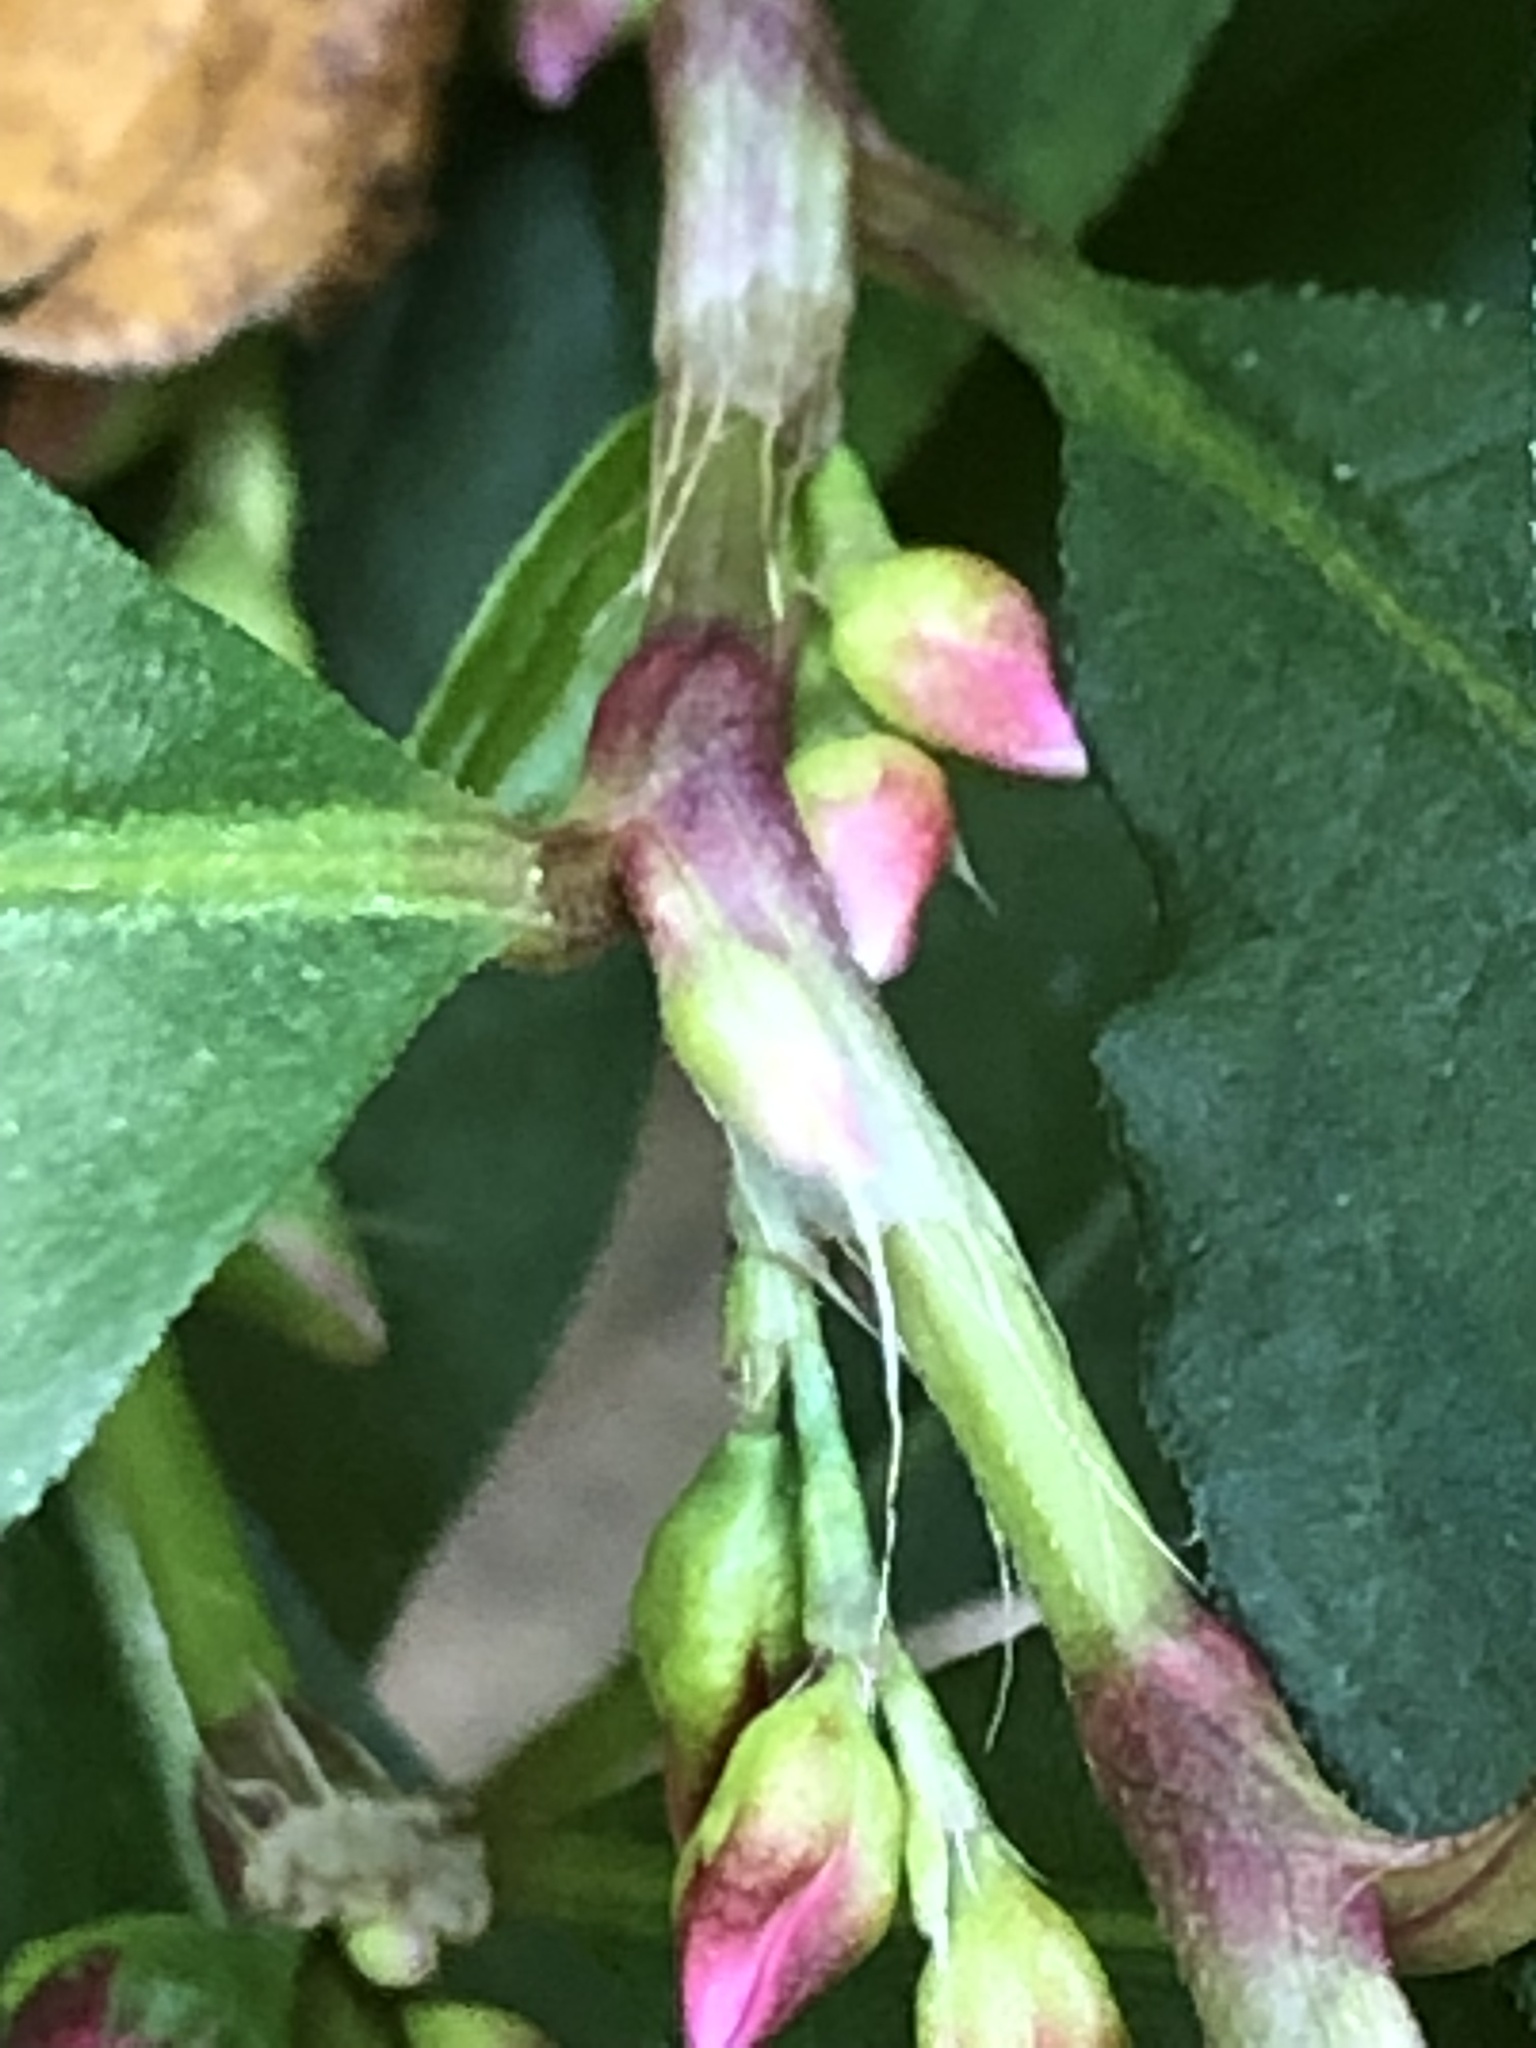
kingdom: Plantae
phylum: Tracheophyta
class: Magnoliopsida
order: Caryophyllales
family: Polygonaceae
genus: Persicaria
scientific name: Persicaria hydropiper
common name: Water-pepper
